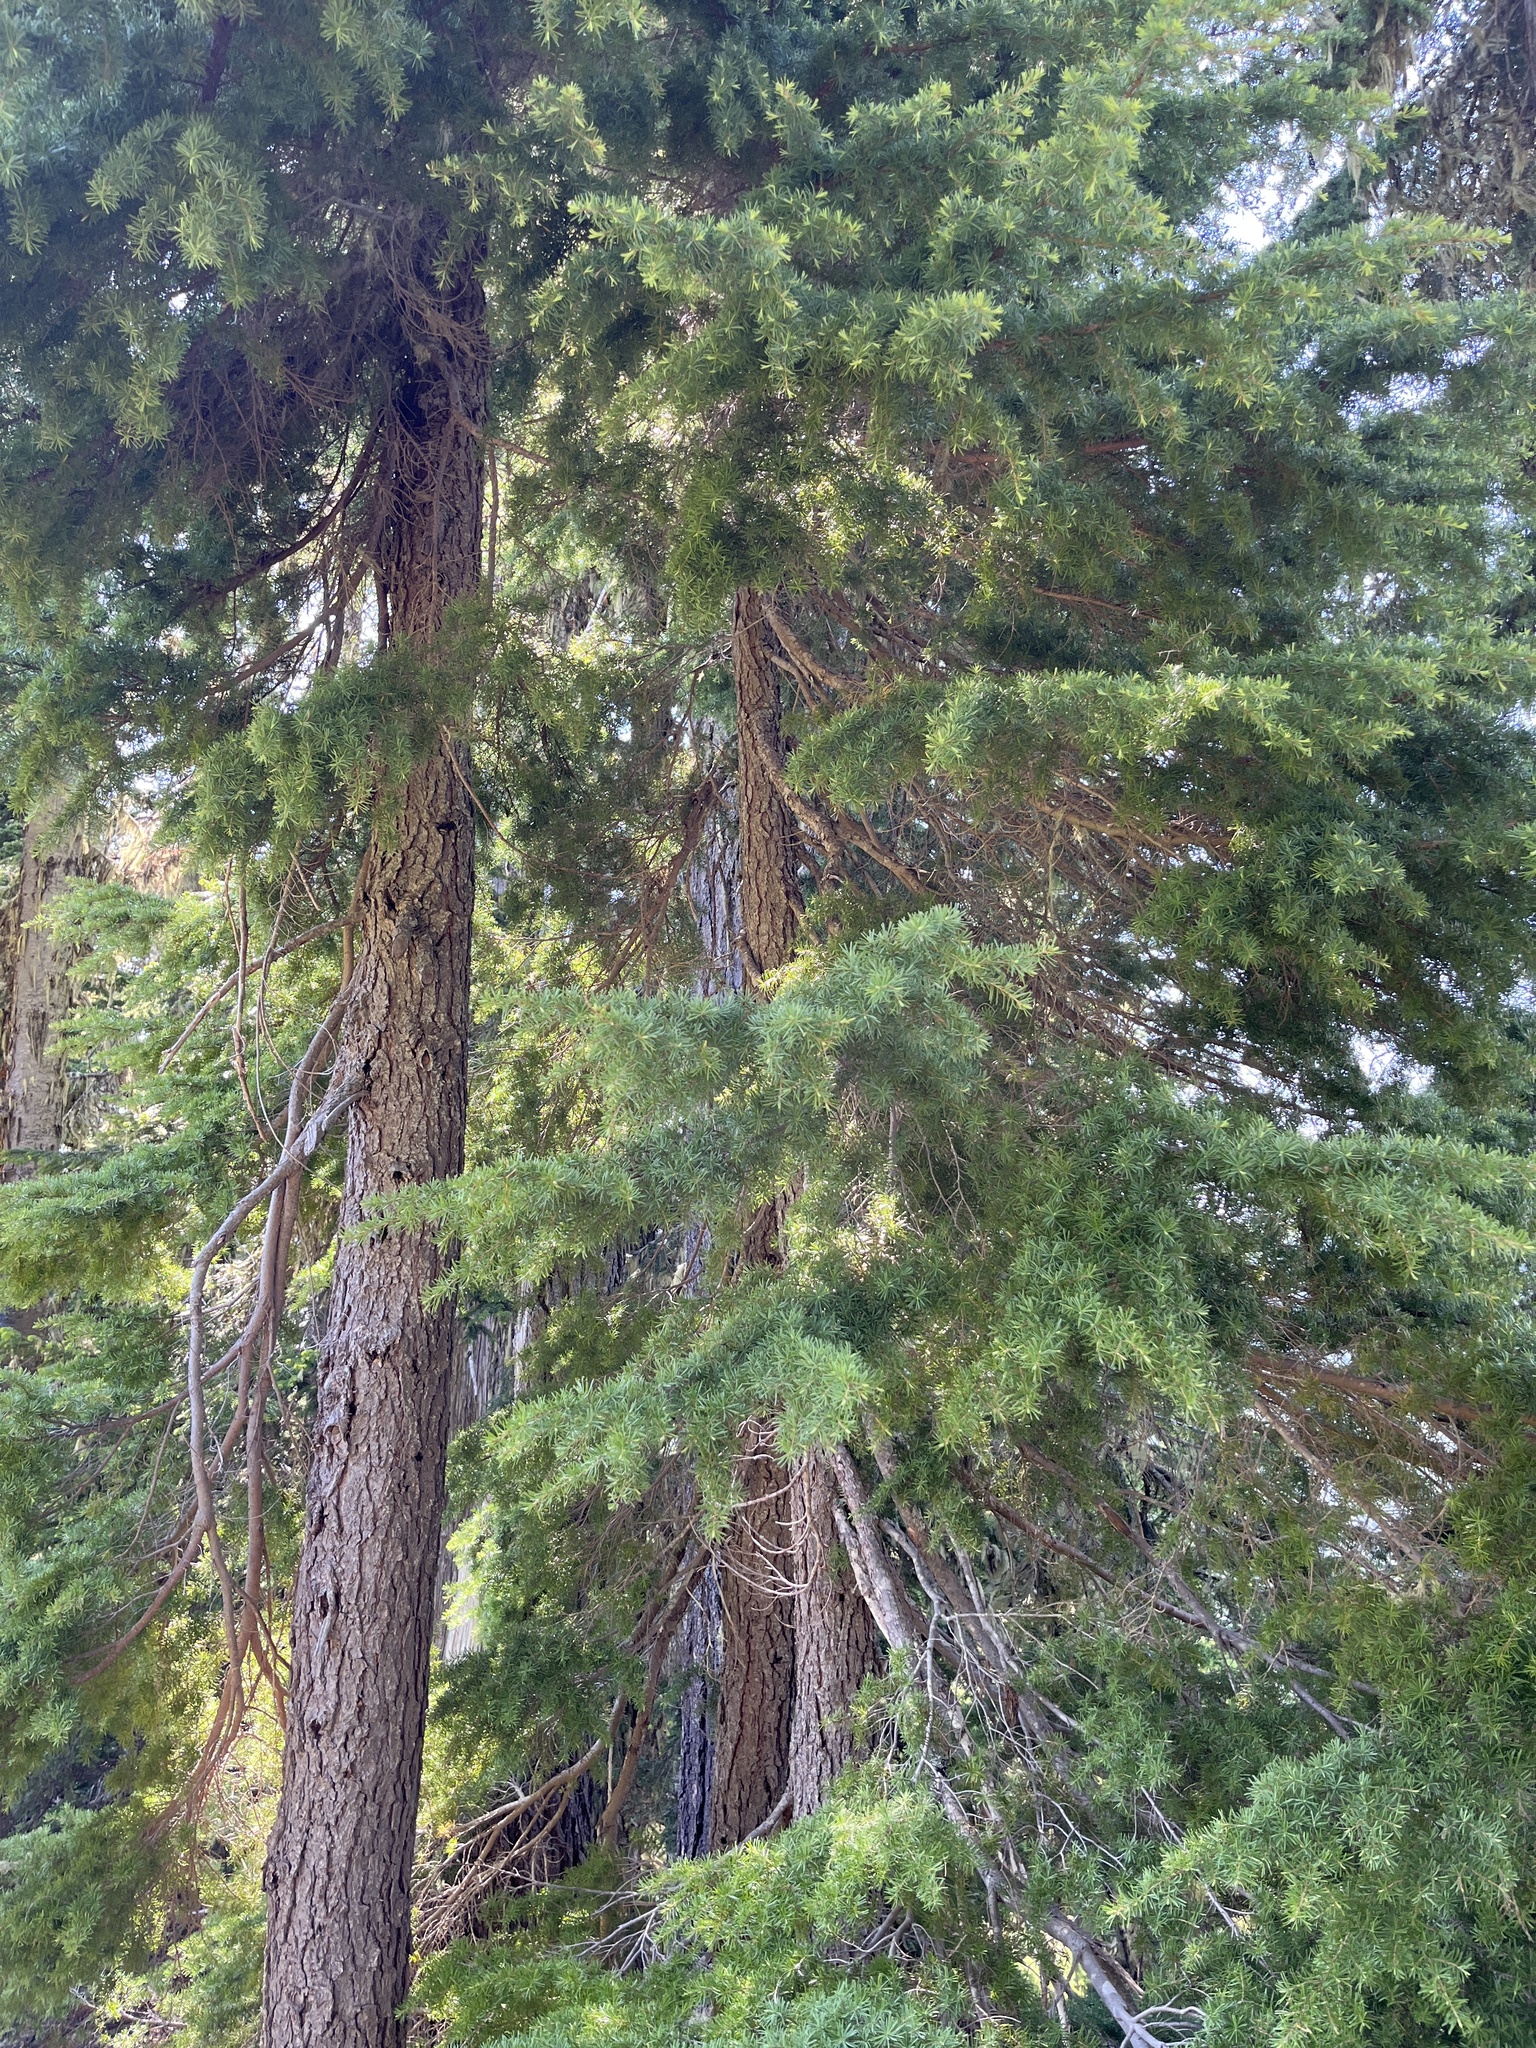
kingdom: Plantae
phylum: Tracheophyta
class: Pinopsida
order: Pinales
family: Pinaceae
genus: Tsuga
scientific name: Tsuga mertensiana
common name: Mountain hemlock
